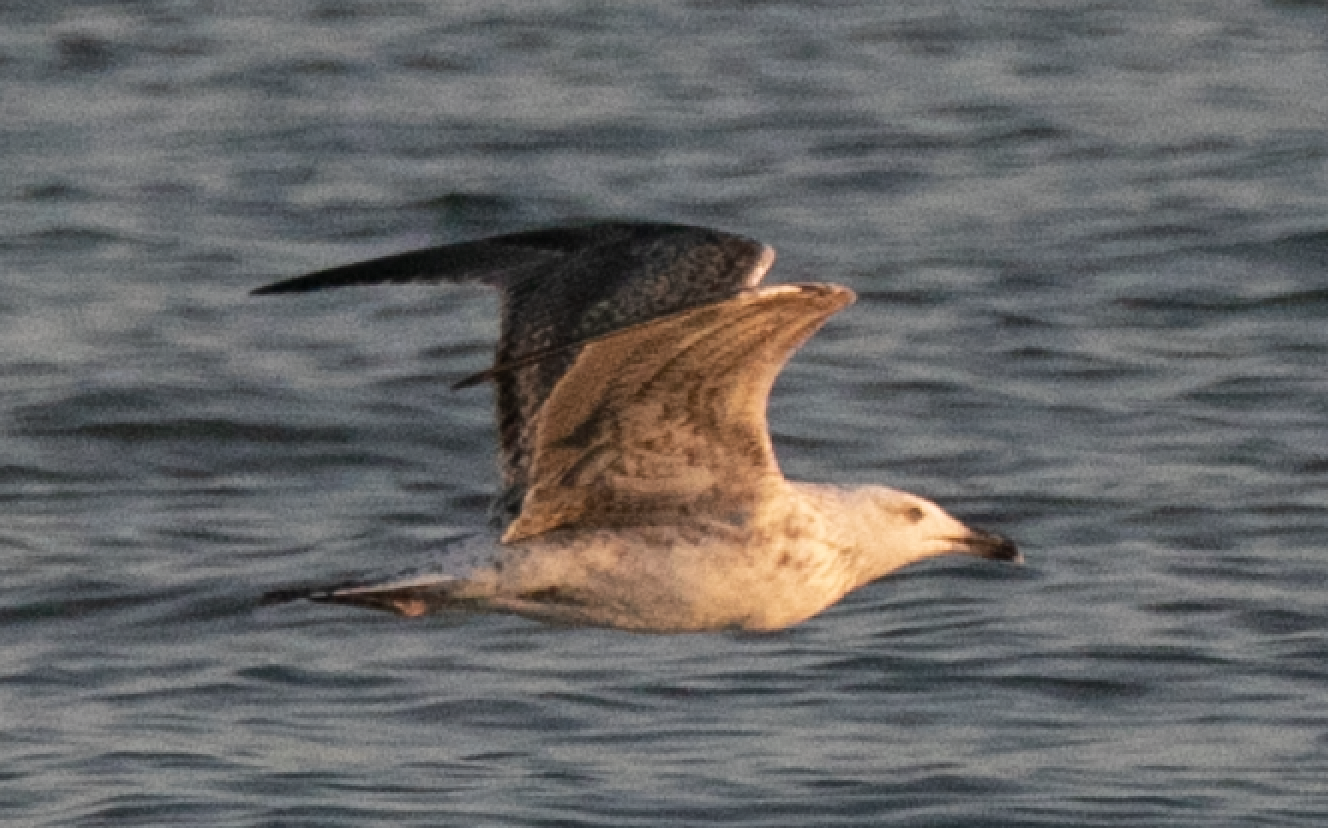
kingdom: Animalia
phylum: Chordata
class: Aves
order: Charadriiformes
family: Laridae
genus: Larus
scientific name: Larus michahellis
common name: Yellow-legged gull
